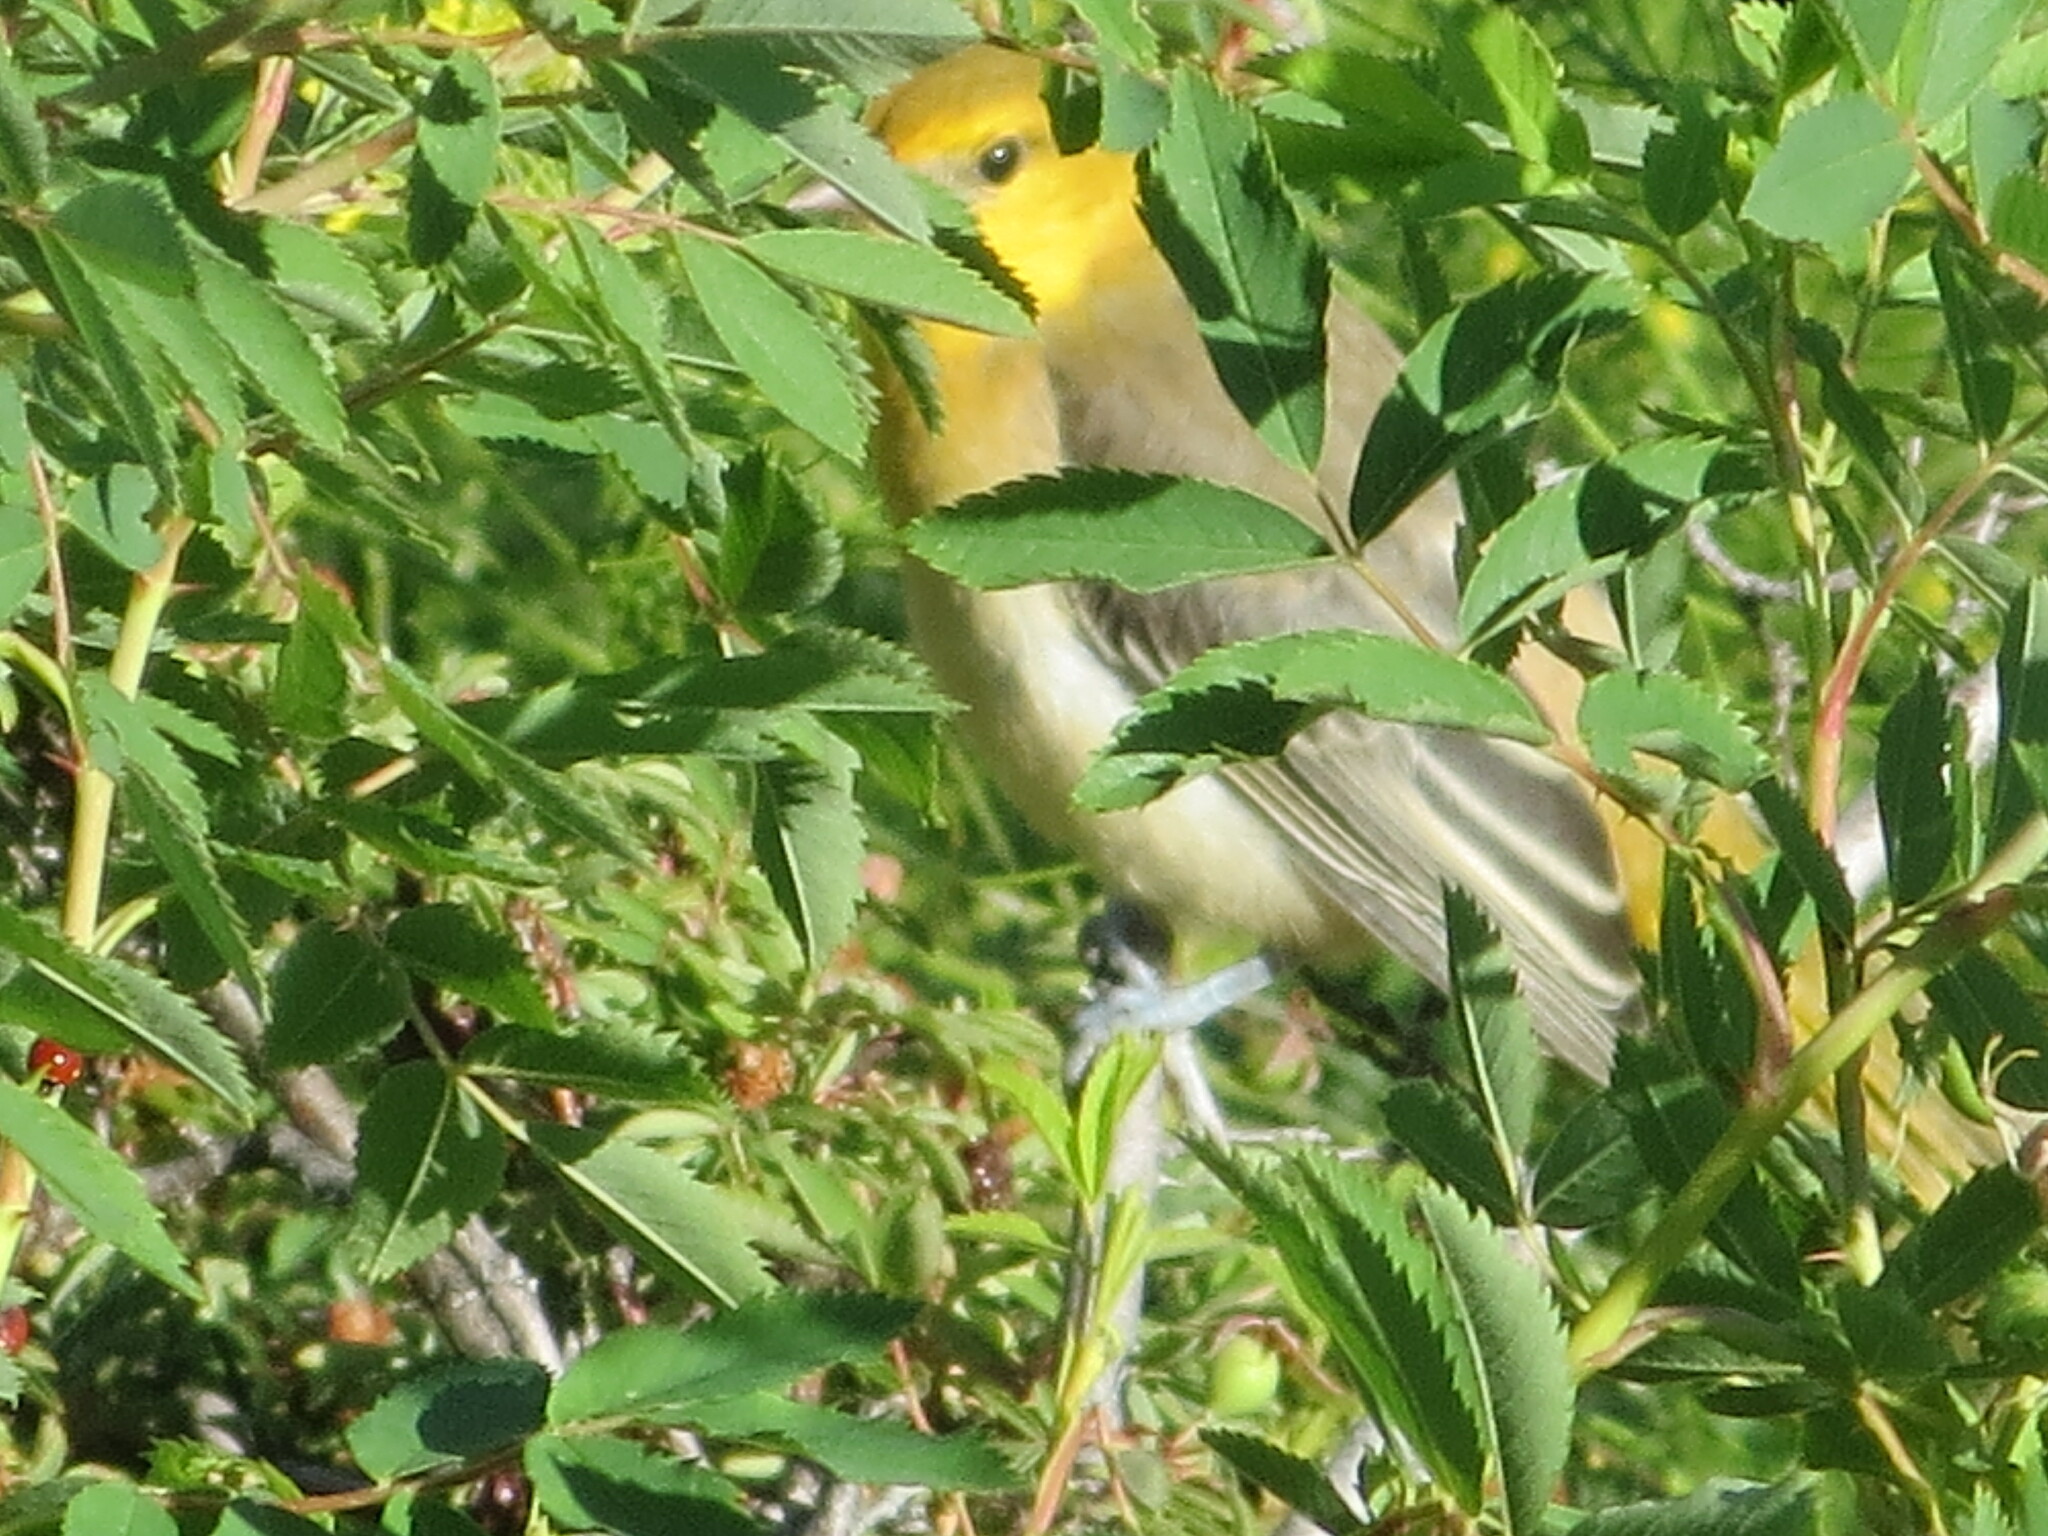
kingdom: Animalia
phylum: Chordata
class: Aves
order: Passeriformes
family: Icteridae
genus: Icterus
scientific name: Icterus bullockii
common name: Bullock's oriole
